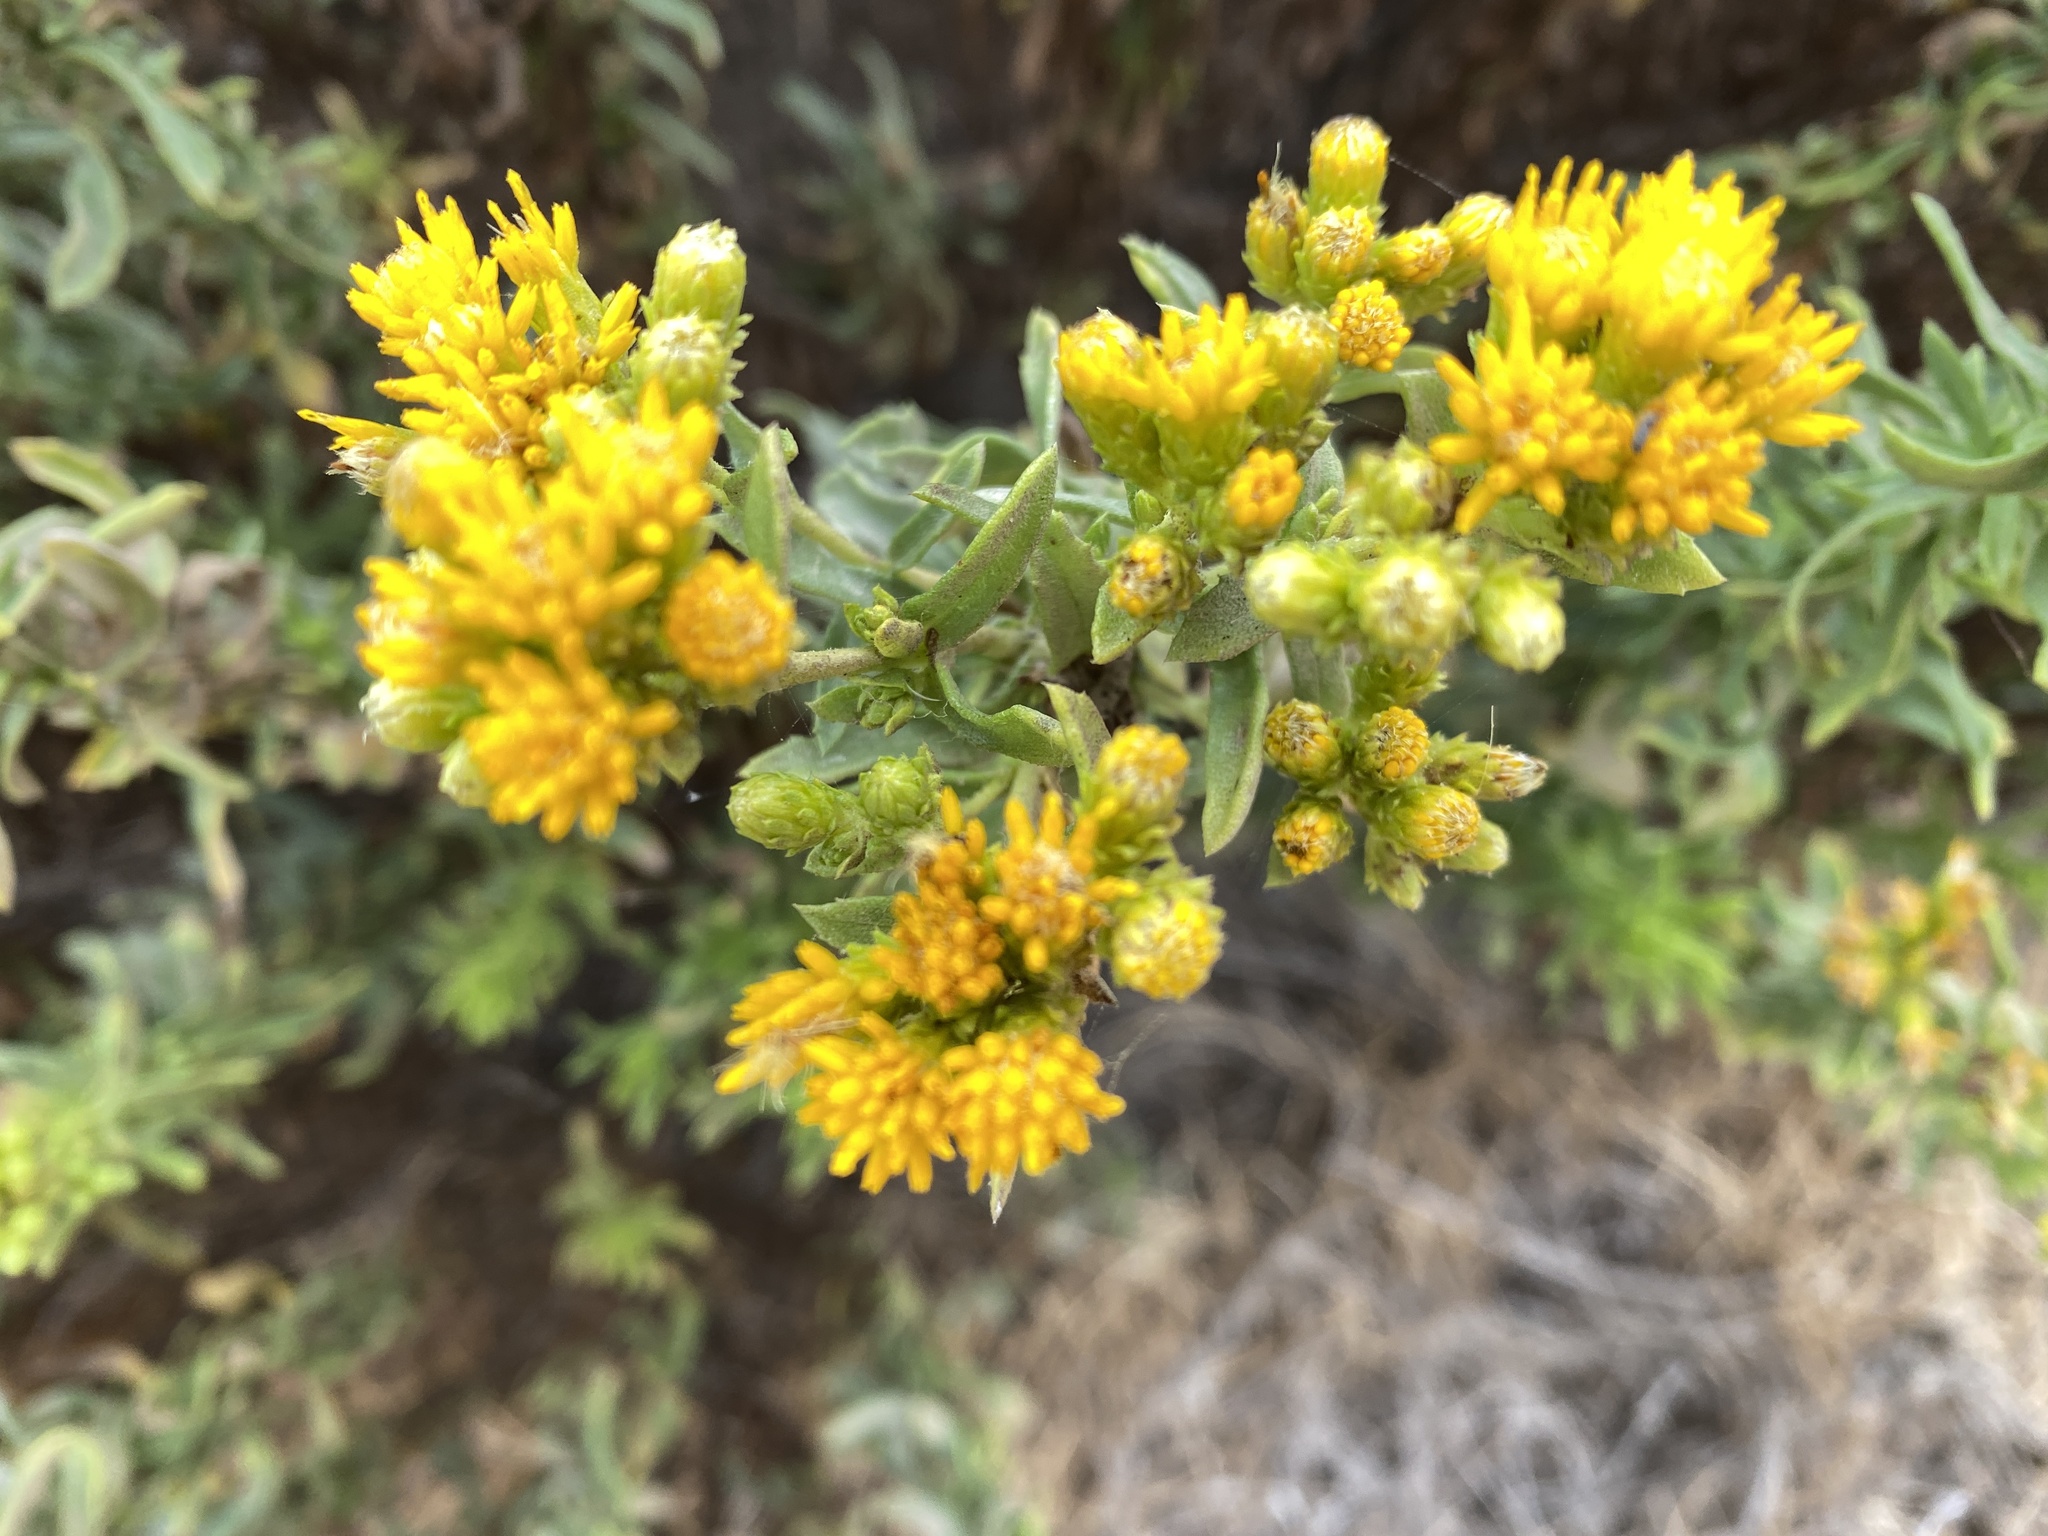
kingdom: Plantae
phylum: Tracheophyta
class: Magnoliopsida
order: Asterales
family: Asteraceae
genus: Isocoma
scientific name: Isocoma menziesii
